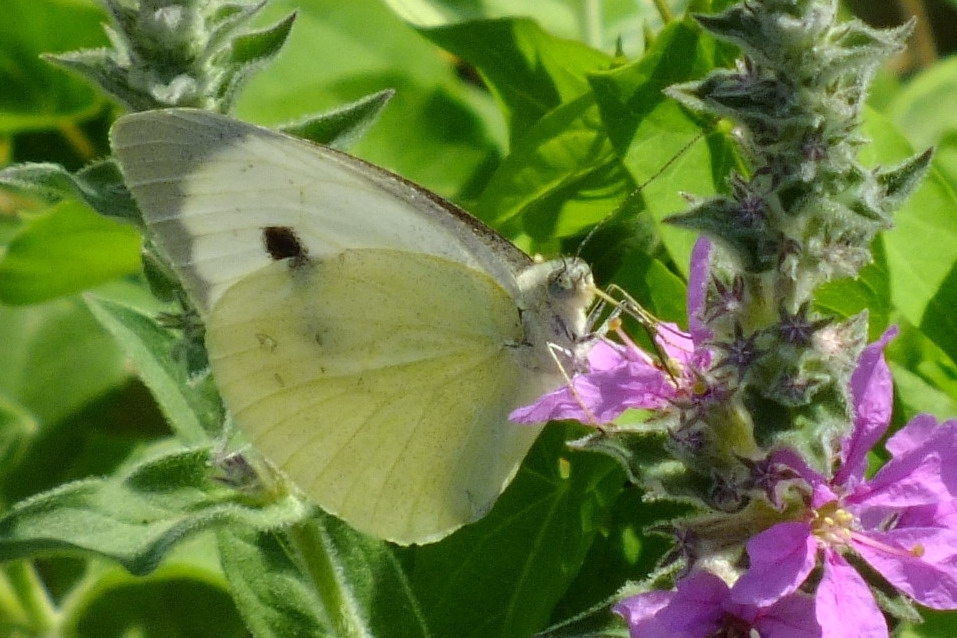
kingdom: Animalia
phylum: Arthropoda
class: Insecta
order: Lepidoptera
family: Pieridae
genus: Pieris
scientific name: Pieris brassicae
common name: Large white
